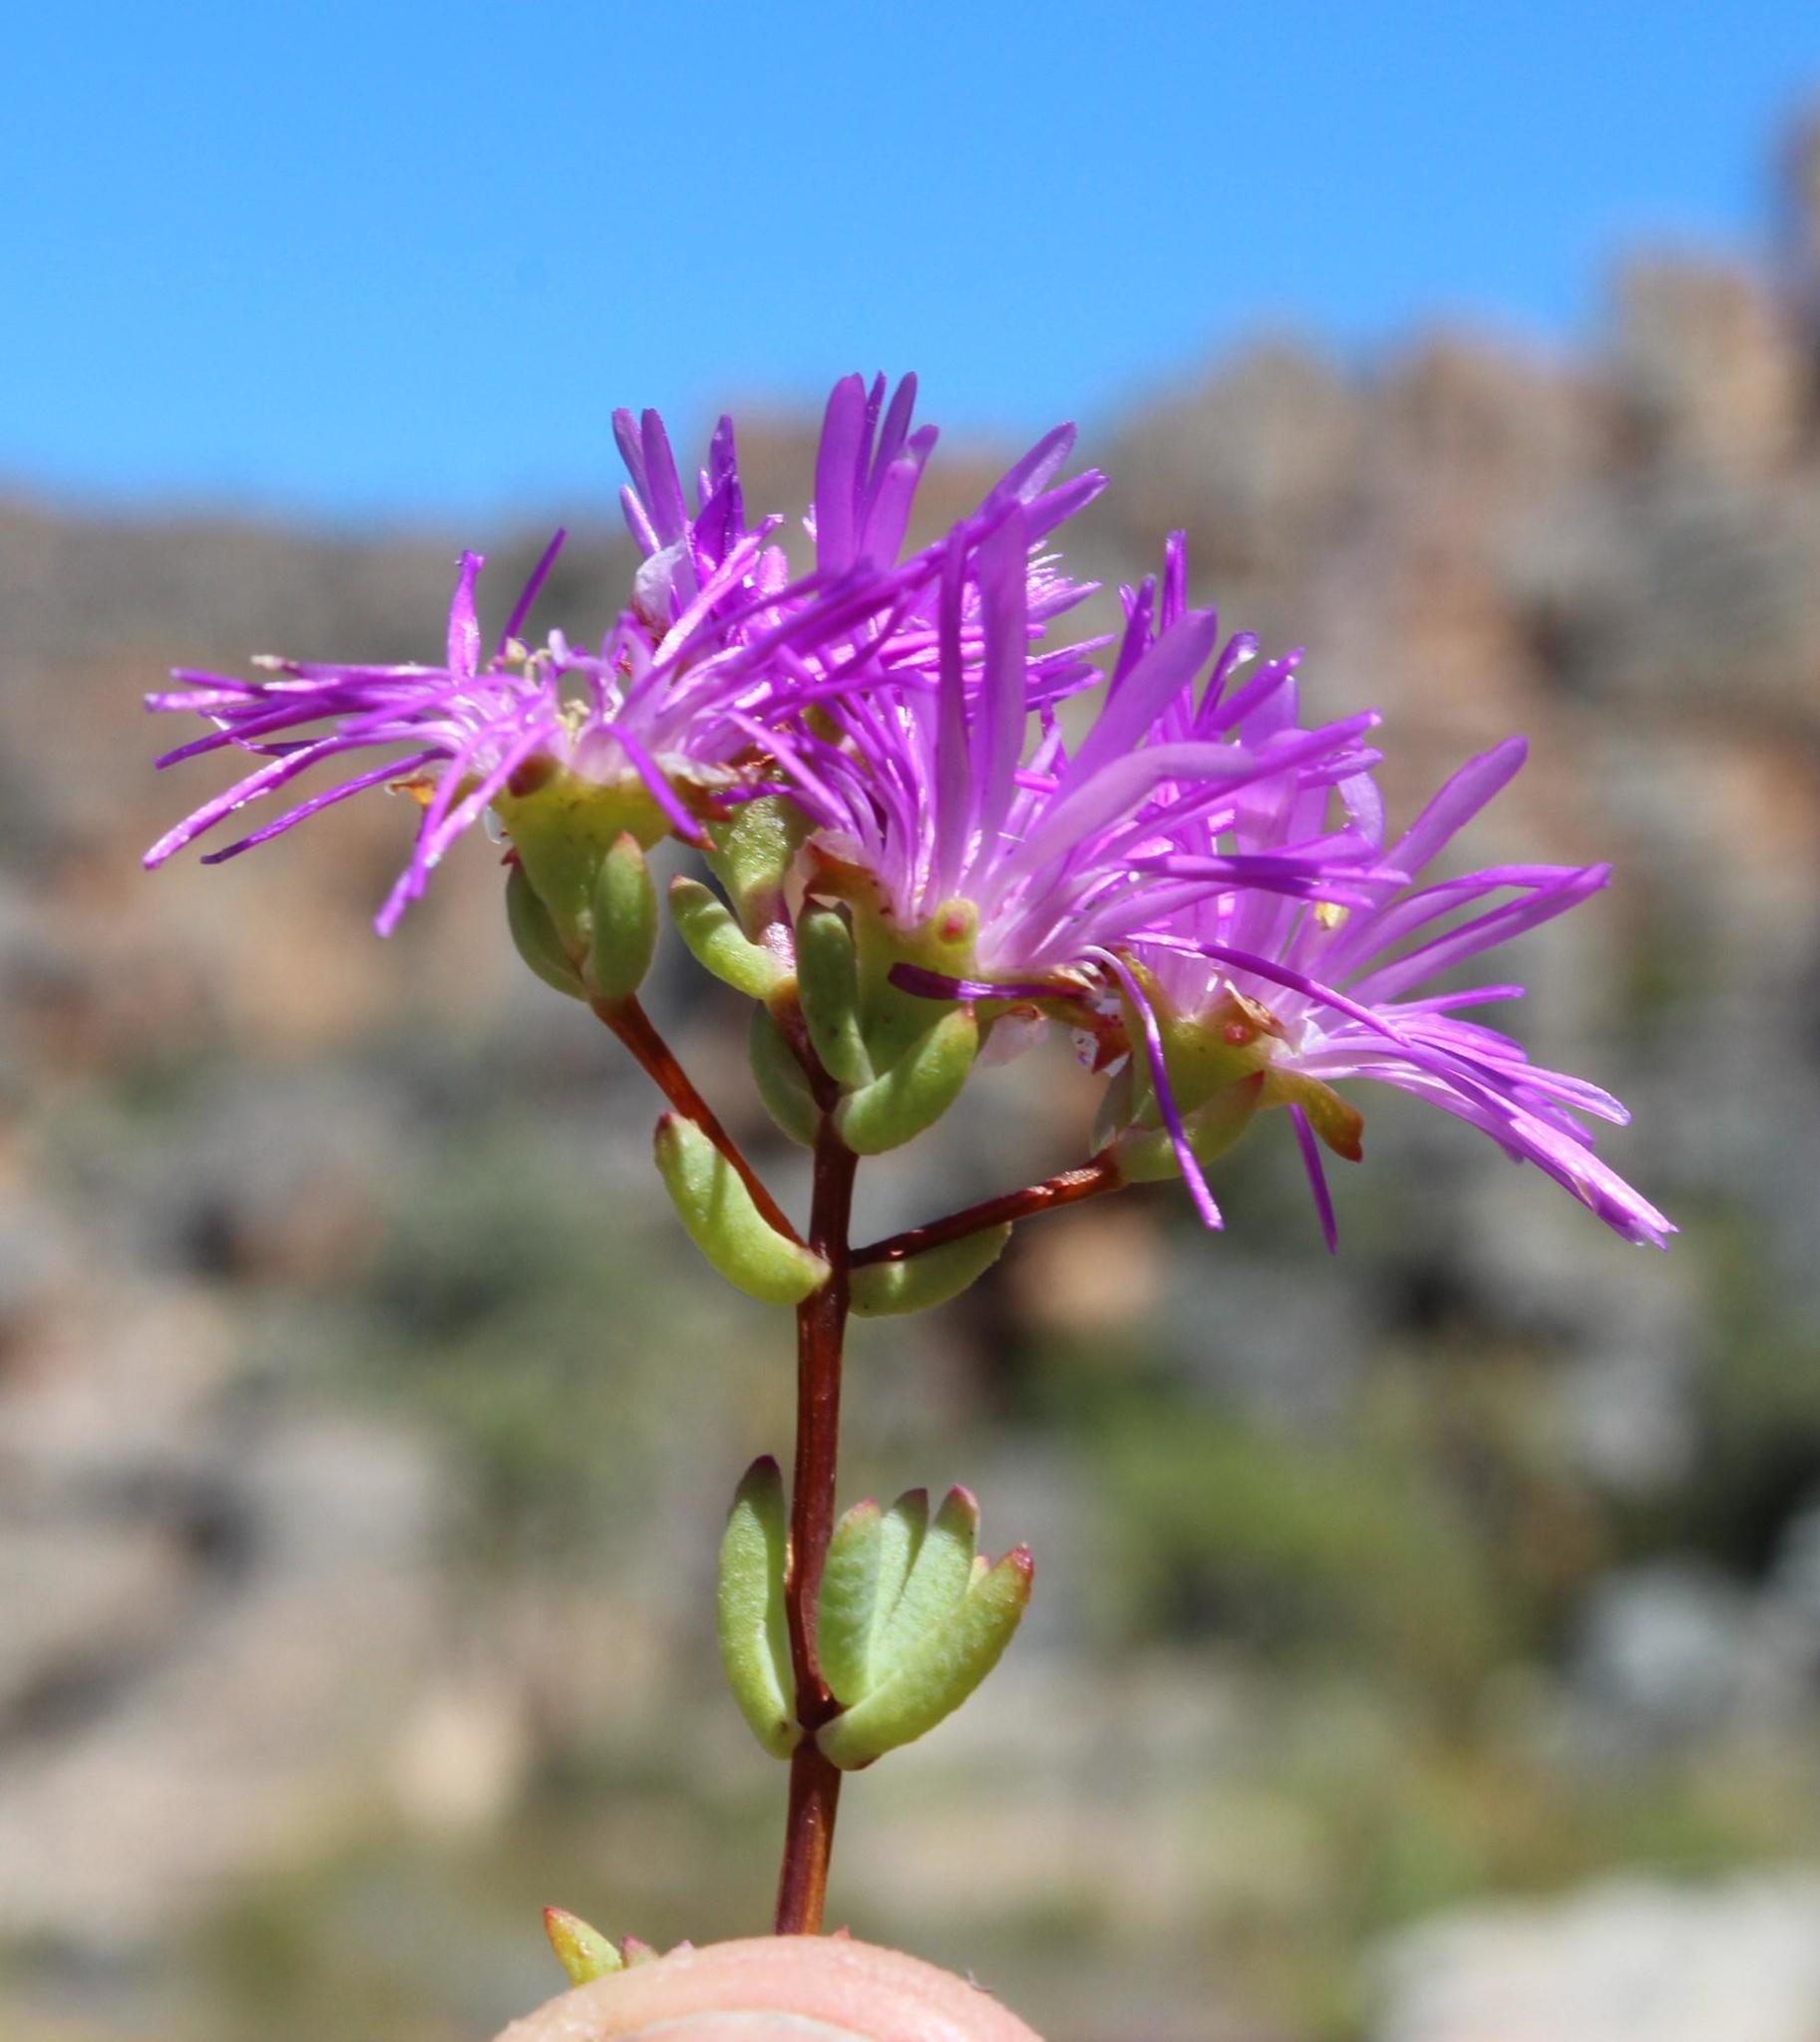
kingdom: Plantae
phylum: Tracheophyta
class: Magnoliopsida
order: Caryophyllales
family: Aizoaceae
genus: Lampranthus
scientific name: Lampranthus falcatus
